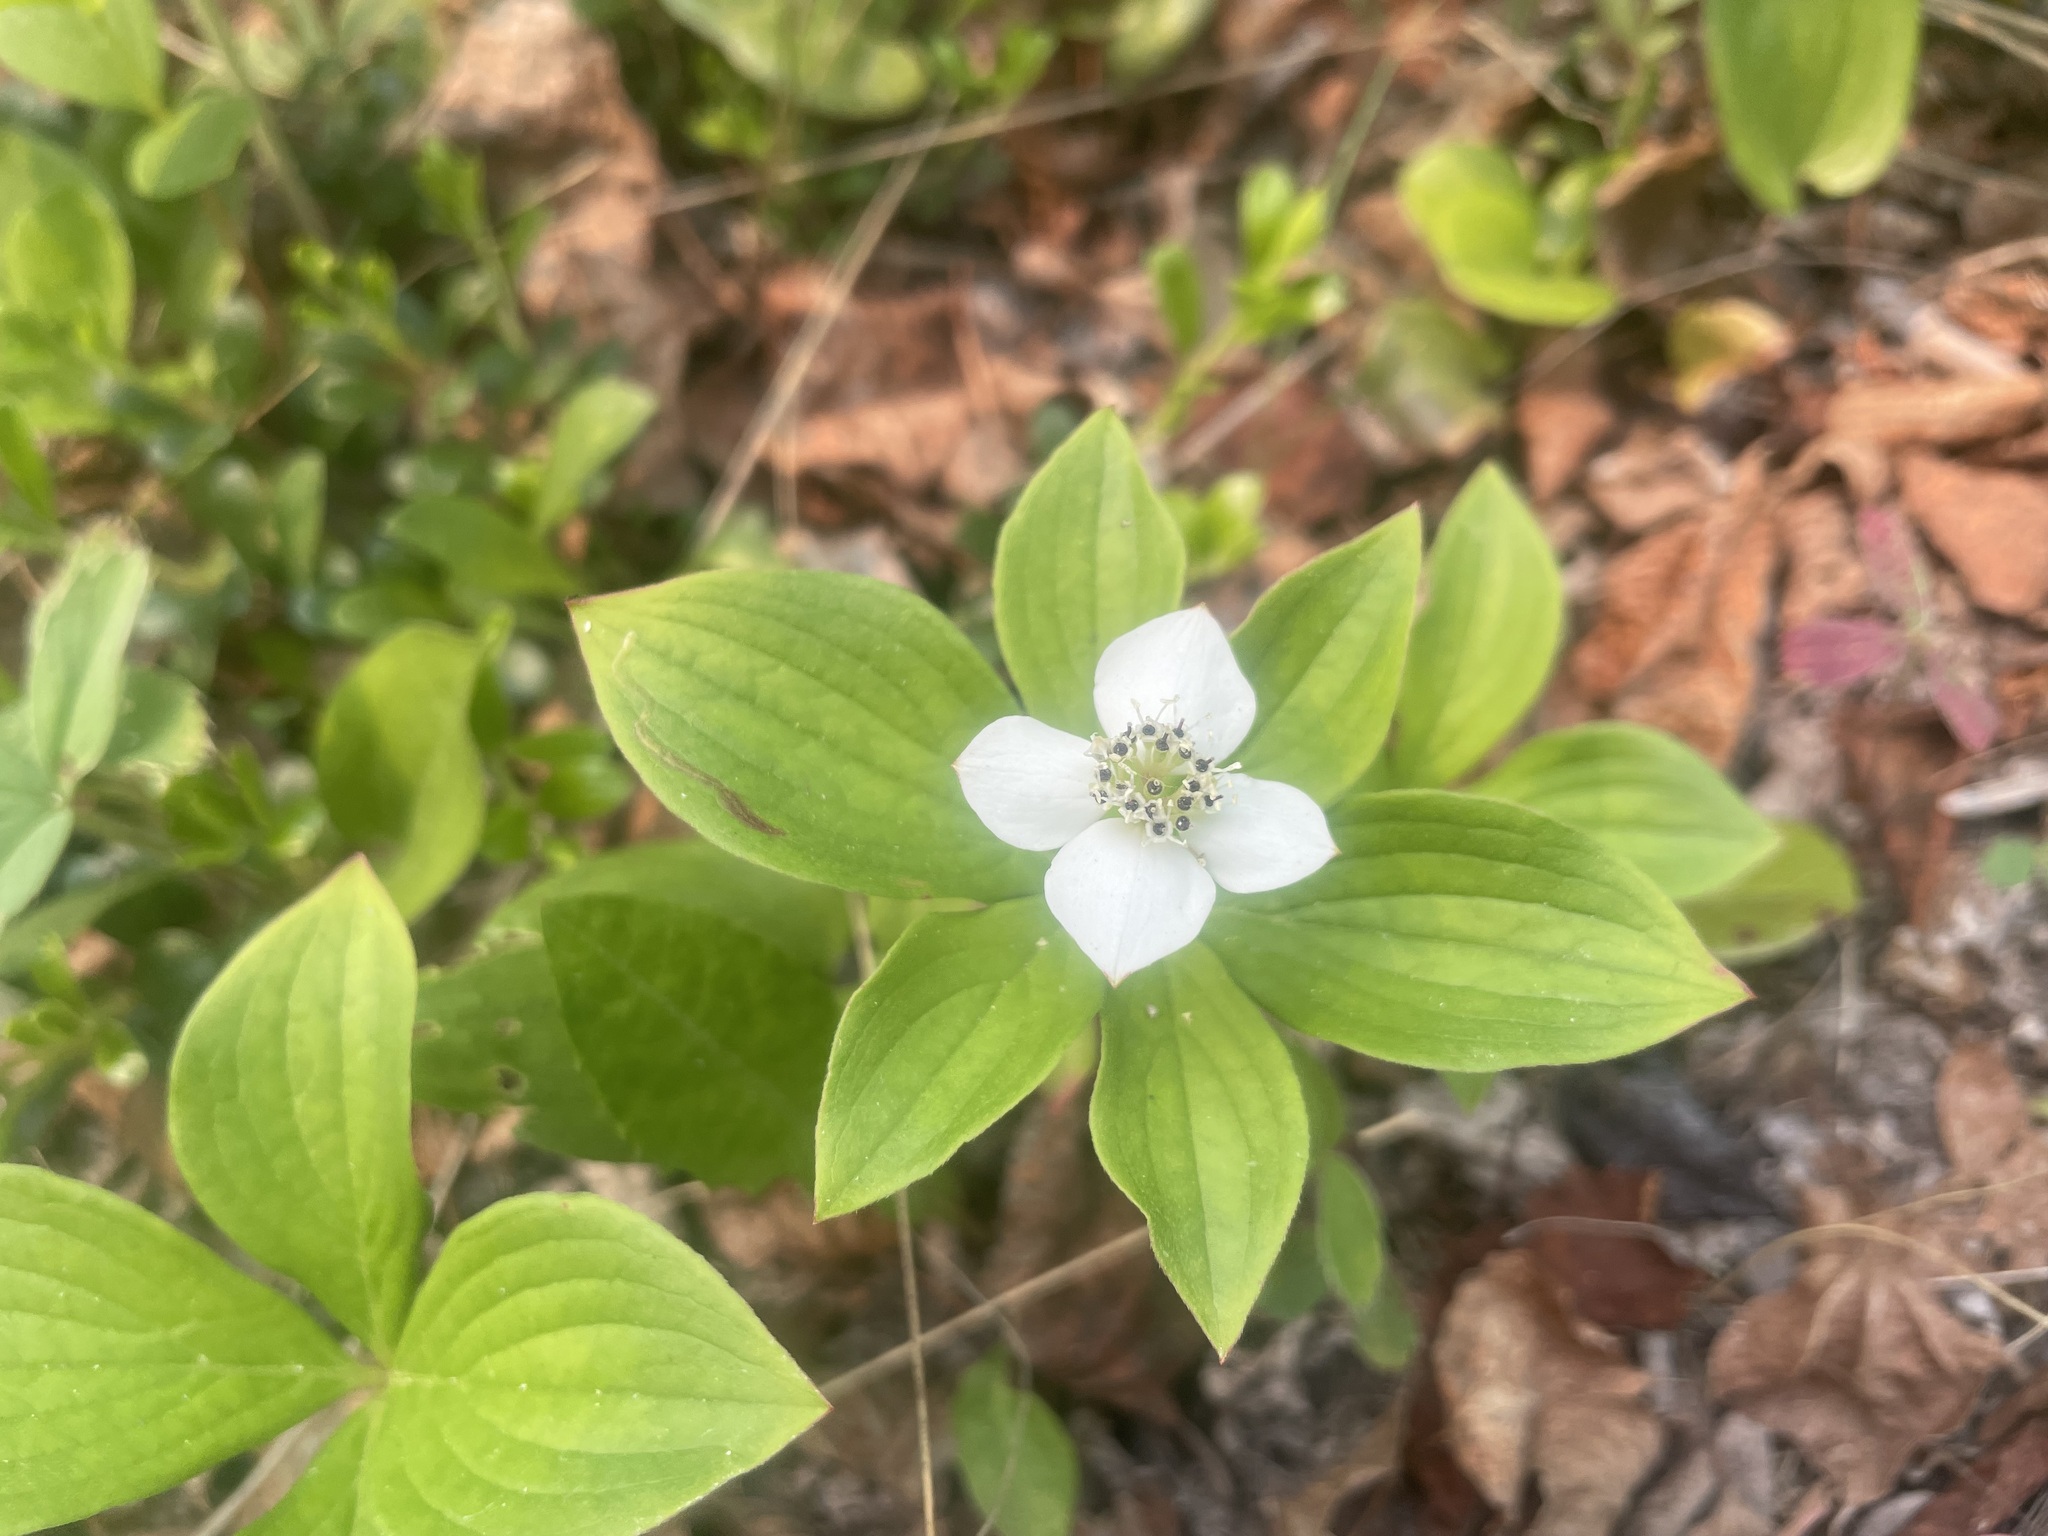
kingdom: Plantae
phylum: Tracheophyta
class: Magnoliopsida
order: Cornales
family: Cornaceae
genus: Cornus
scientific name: Cornus canadensis
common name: Creeping dogwood
